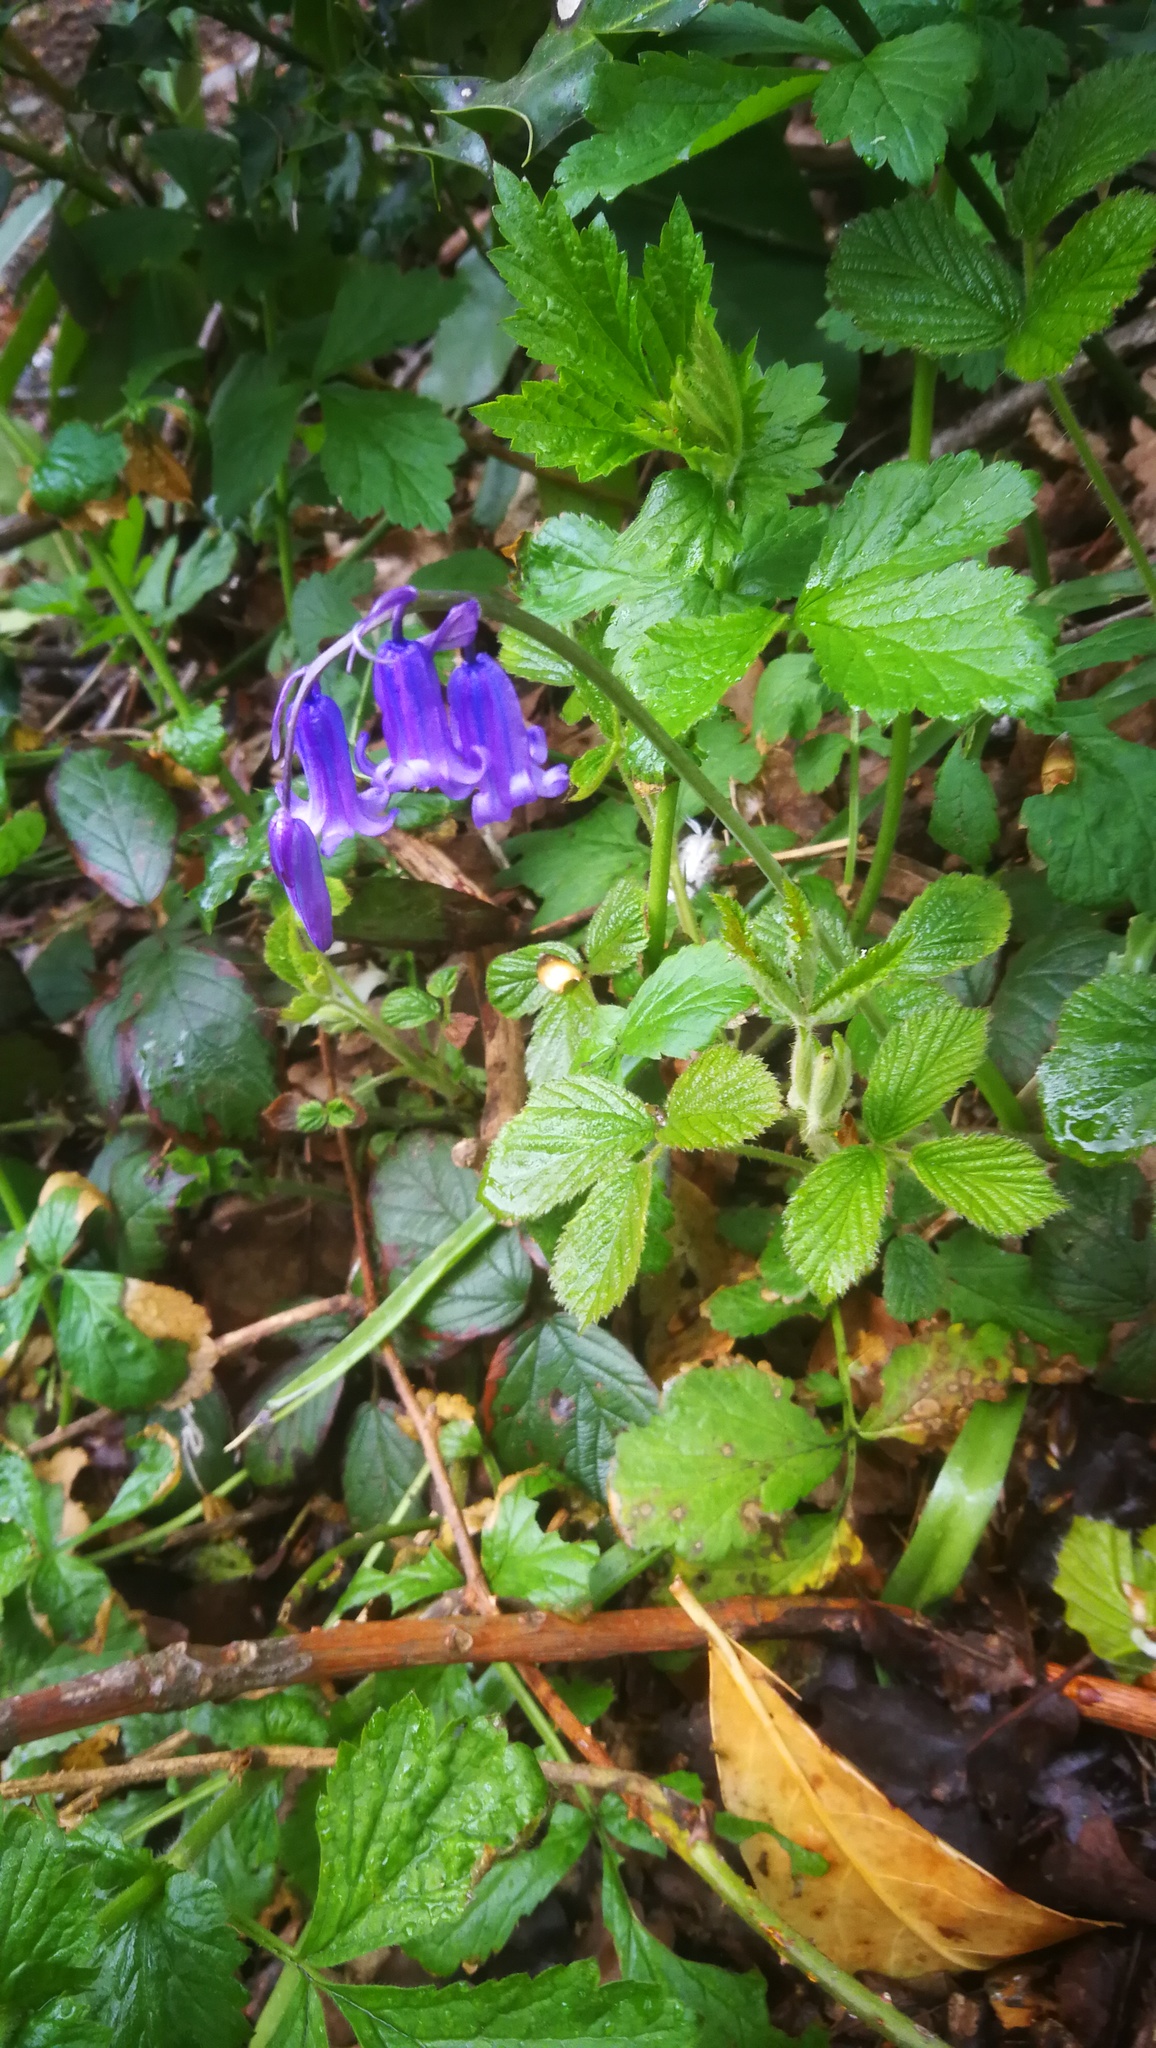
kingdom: Plantae
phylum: Tracheophyta
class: Liliopsida
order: Asparagales
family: Asparagaceae
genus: Hyacinthoides
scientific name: Hyacinthoides non-scripta
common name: Bluebell
